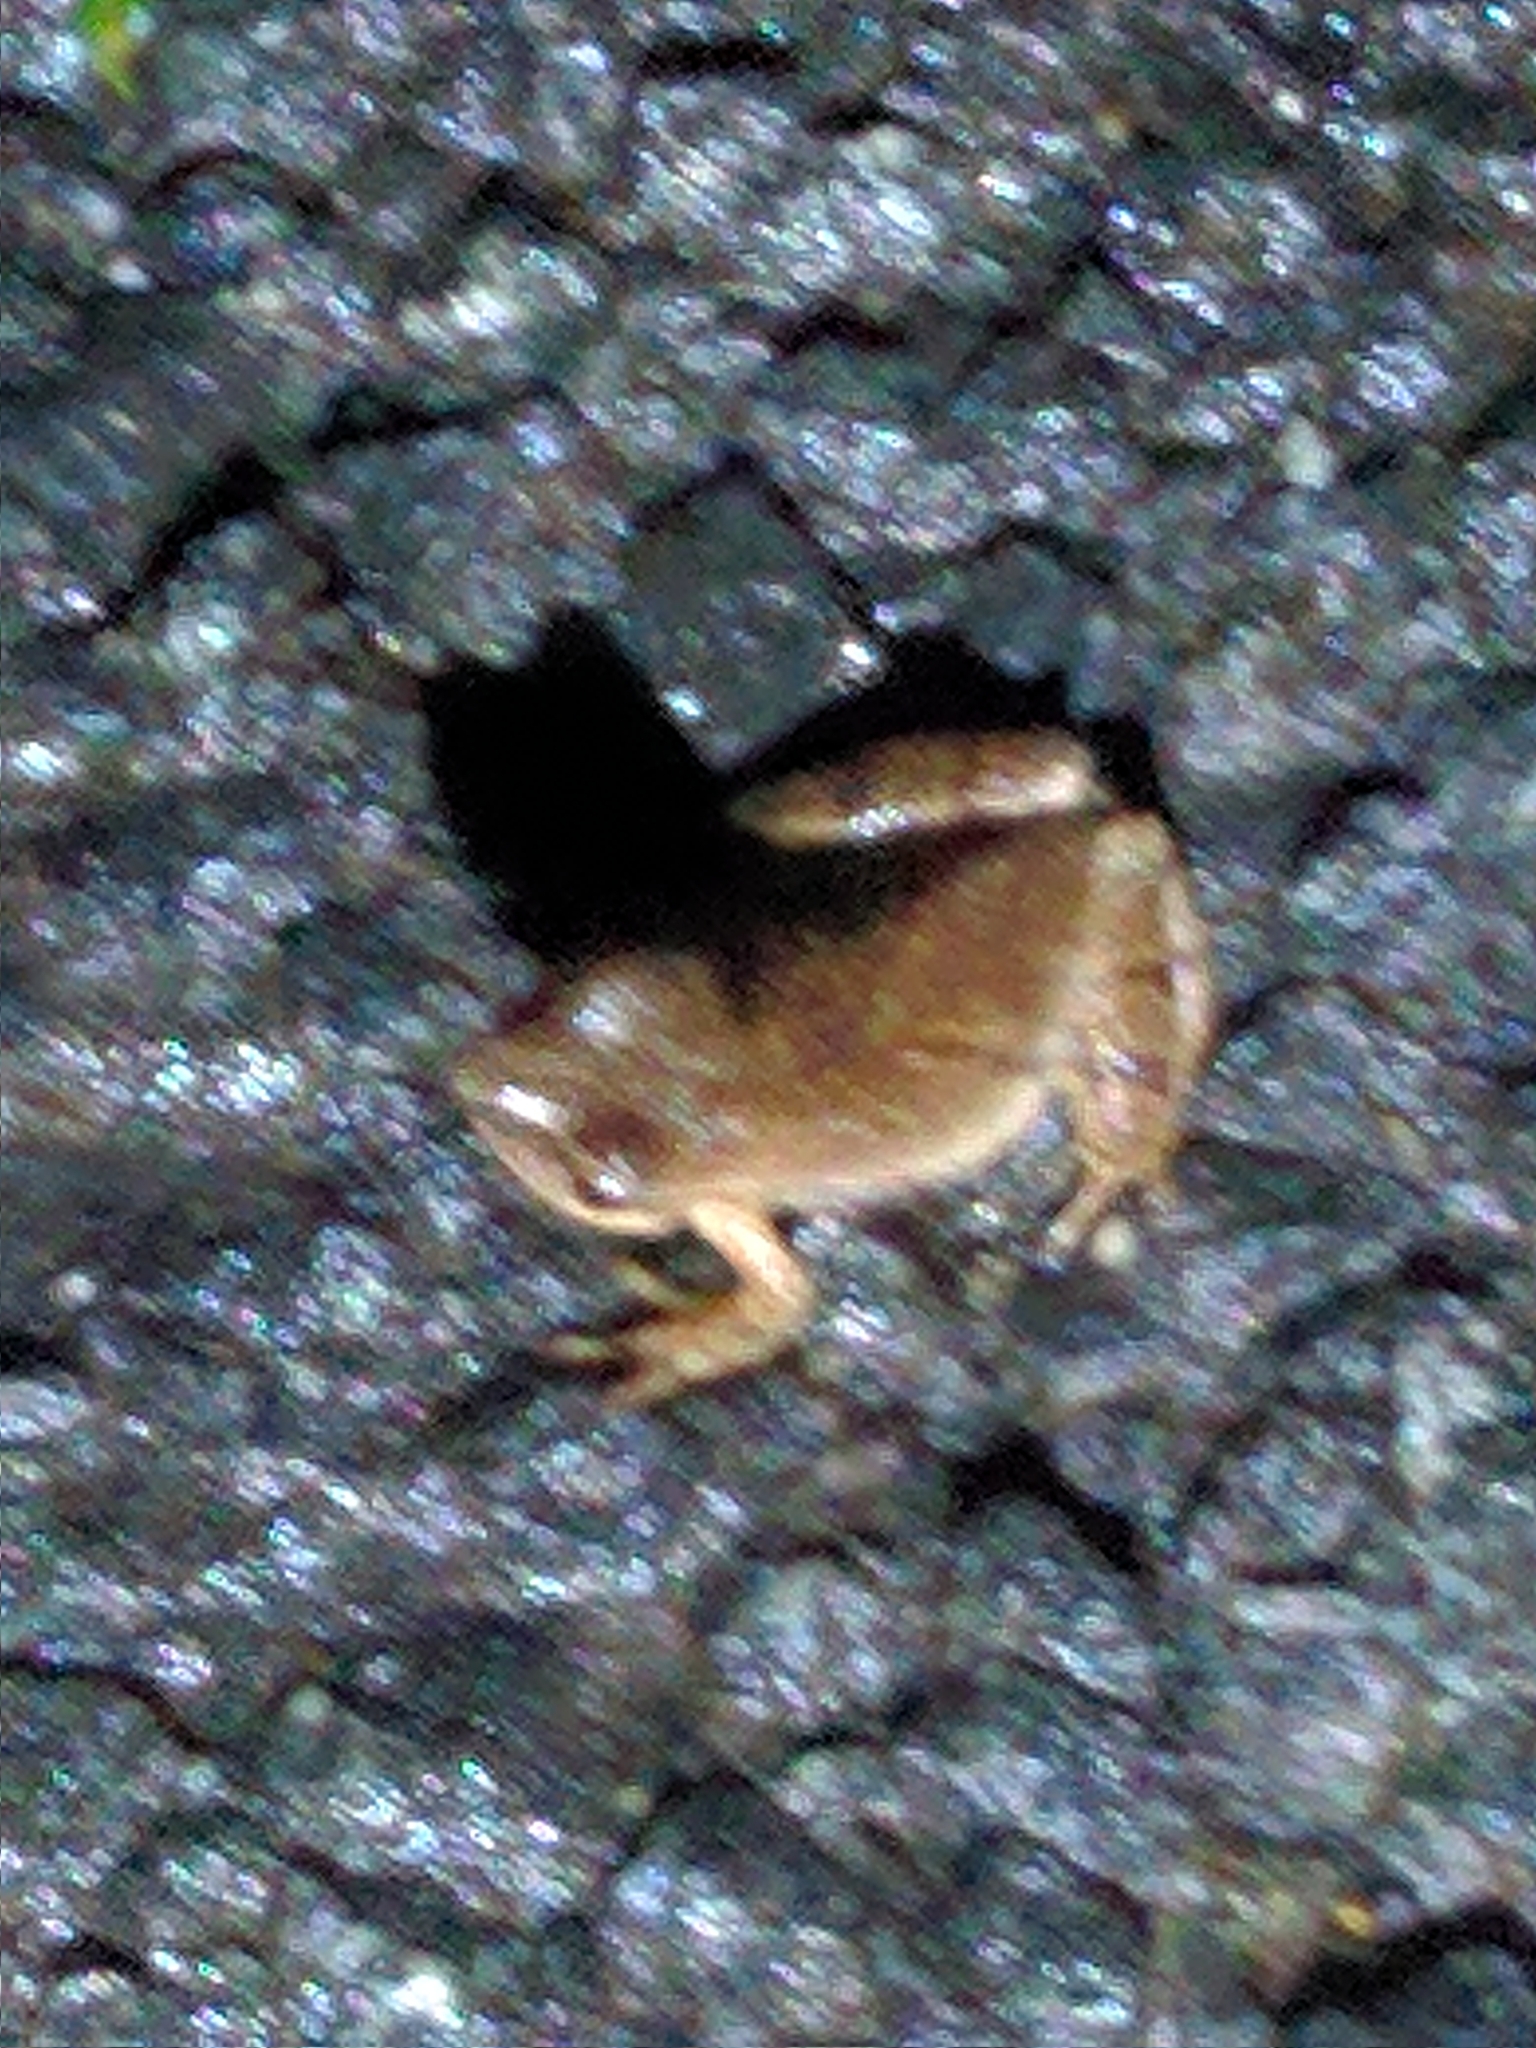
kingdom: Animalia
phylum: Chordata
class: Amphibia
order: Anura
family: Hylidae
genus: Pseudacris
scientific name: Pseudacris crucifer
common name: Spring peeper
